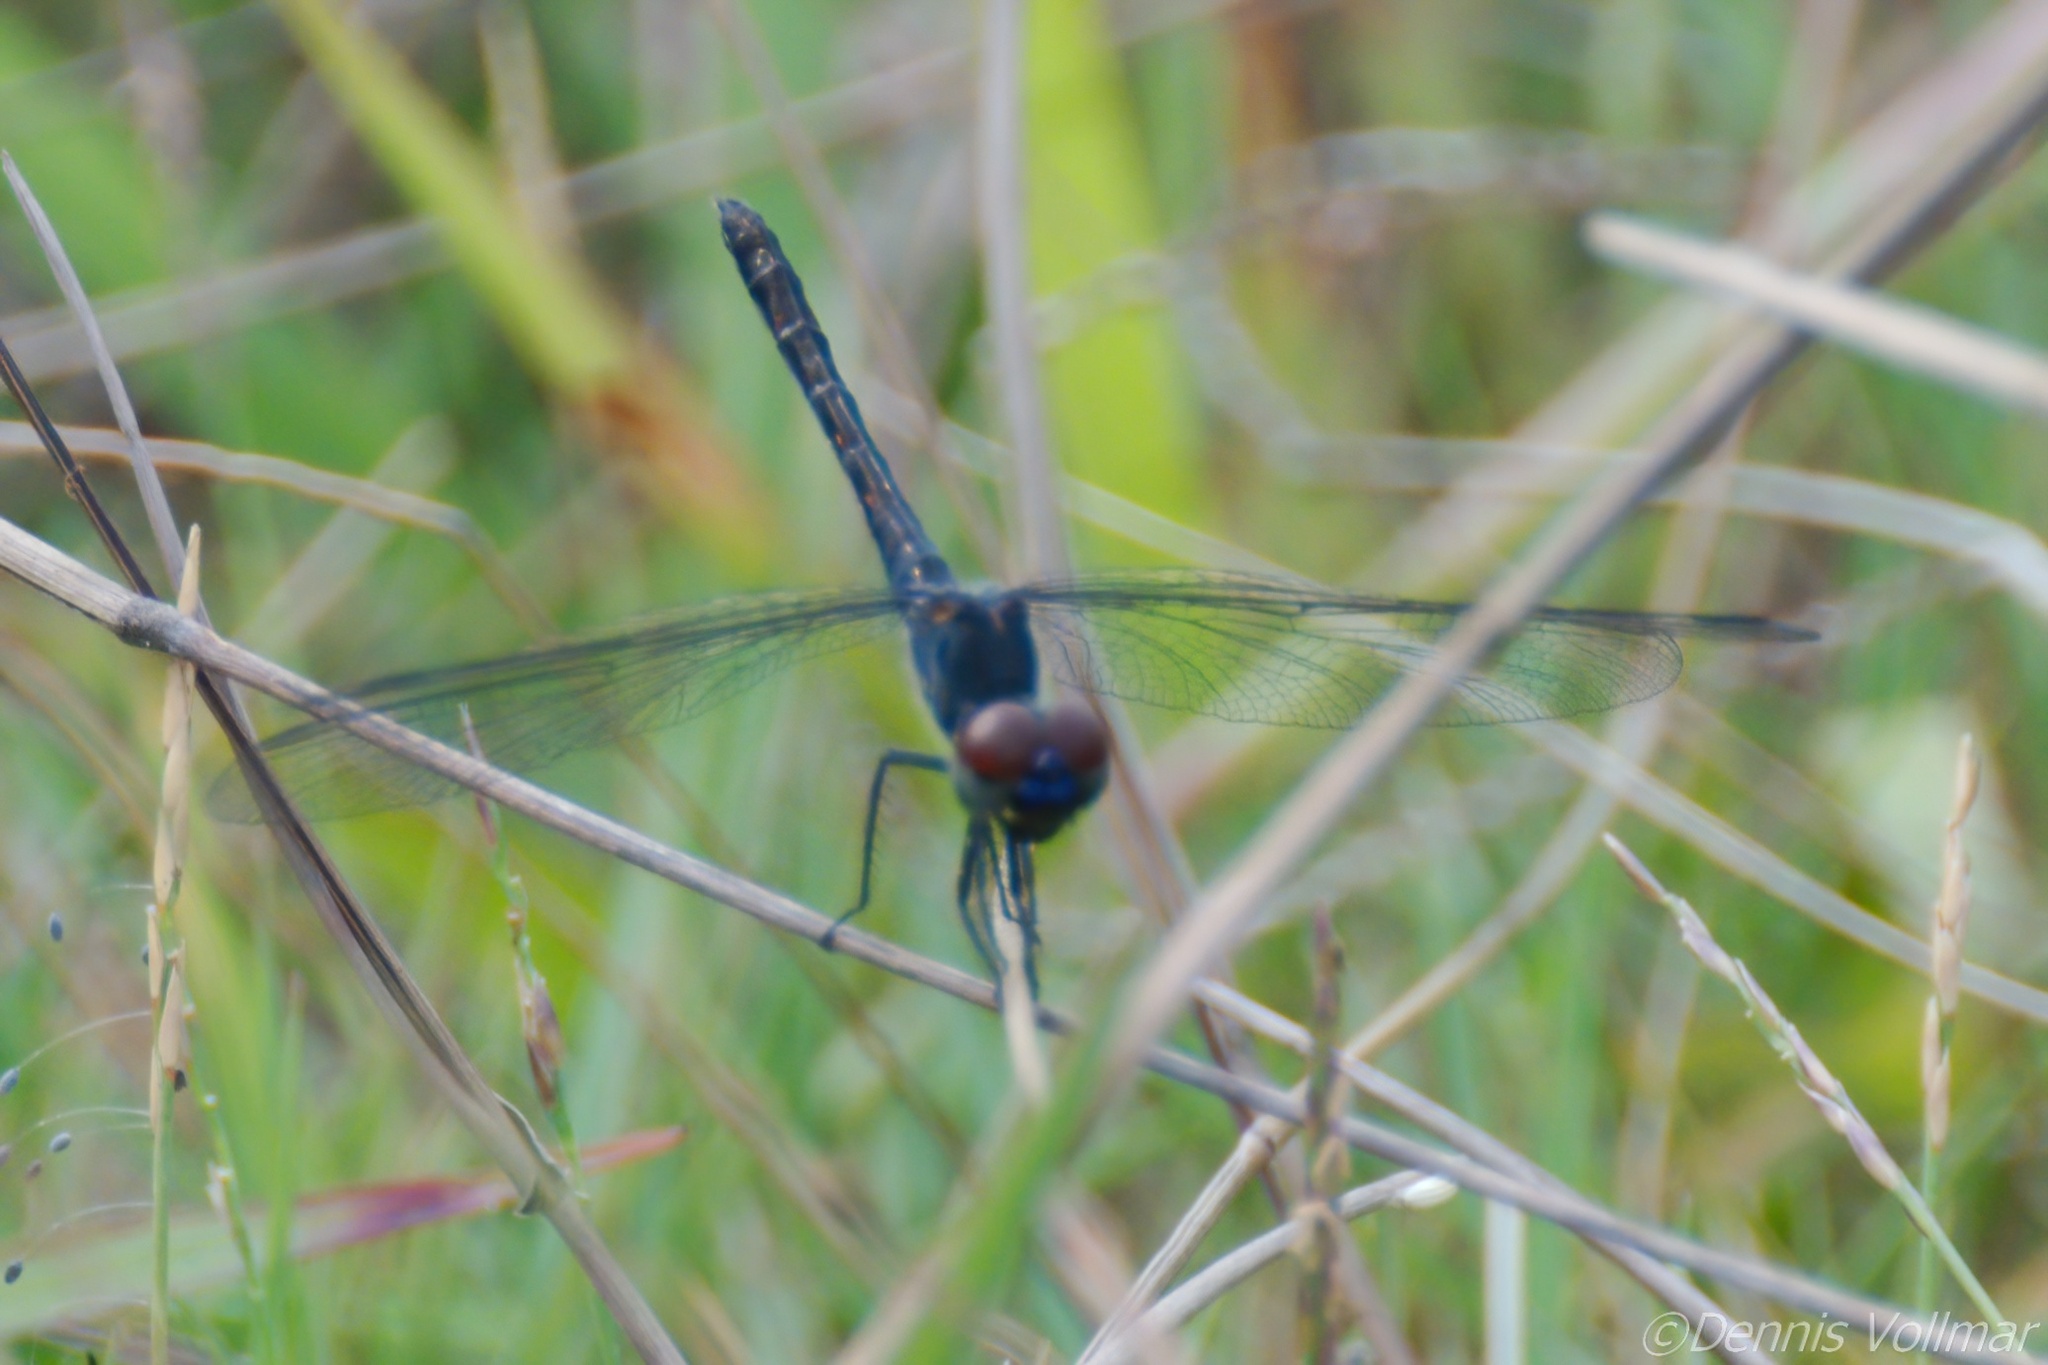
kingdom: Animalia
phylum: Arthropoda
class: Insecta
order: Odonata
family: Libellulidae
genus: Erythrodiplax
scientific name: Erythrodiplax berenice
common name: Seaside dragonlet
